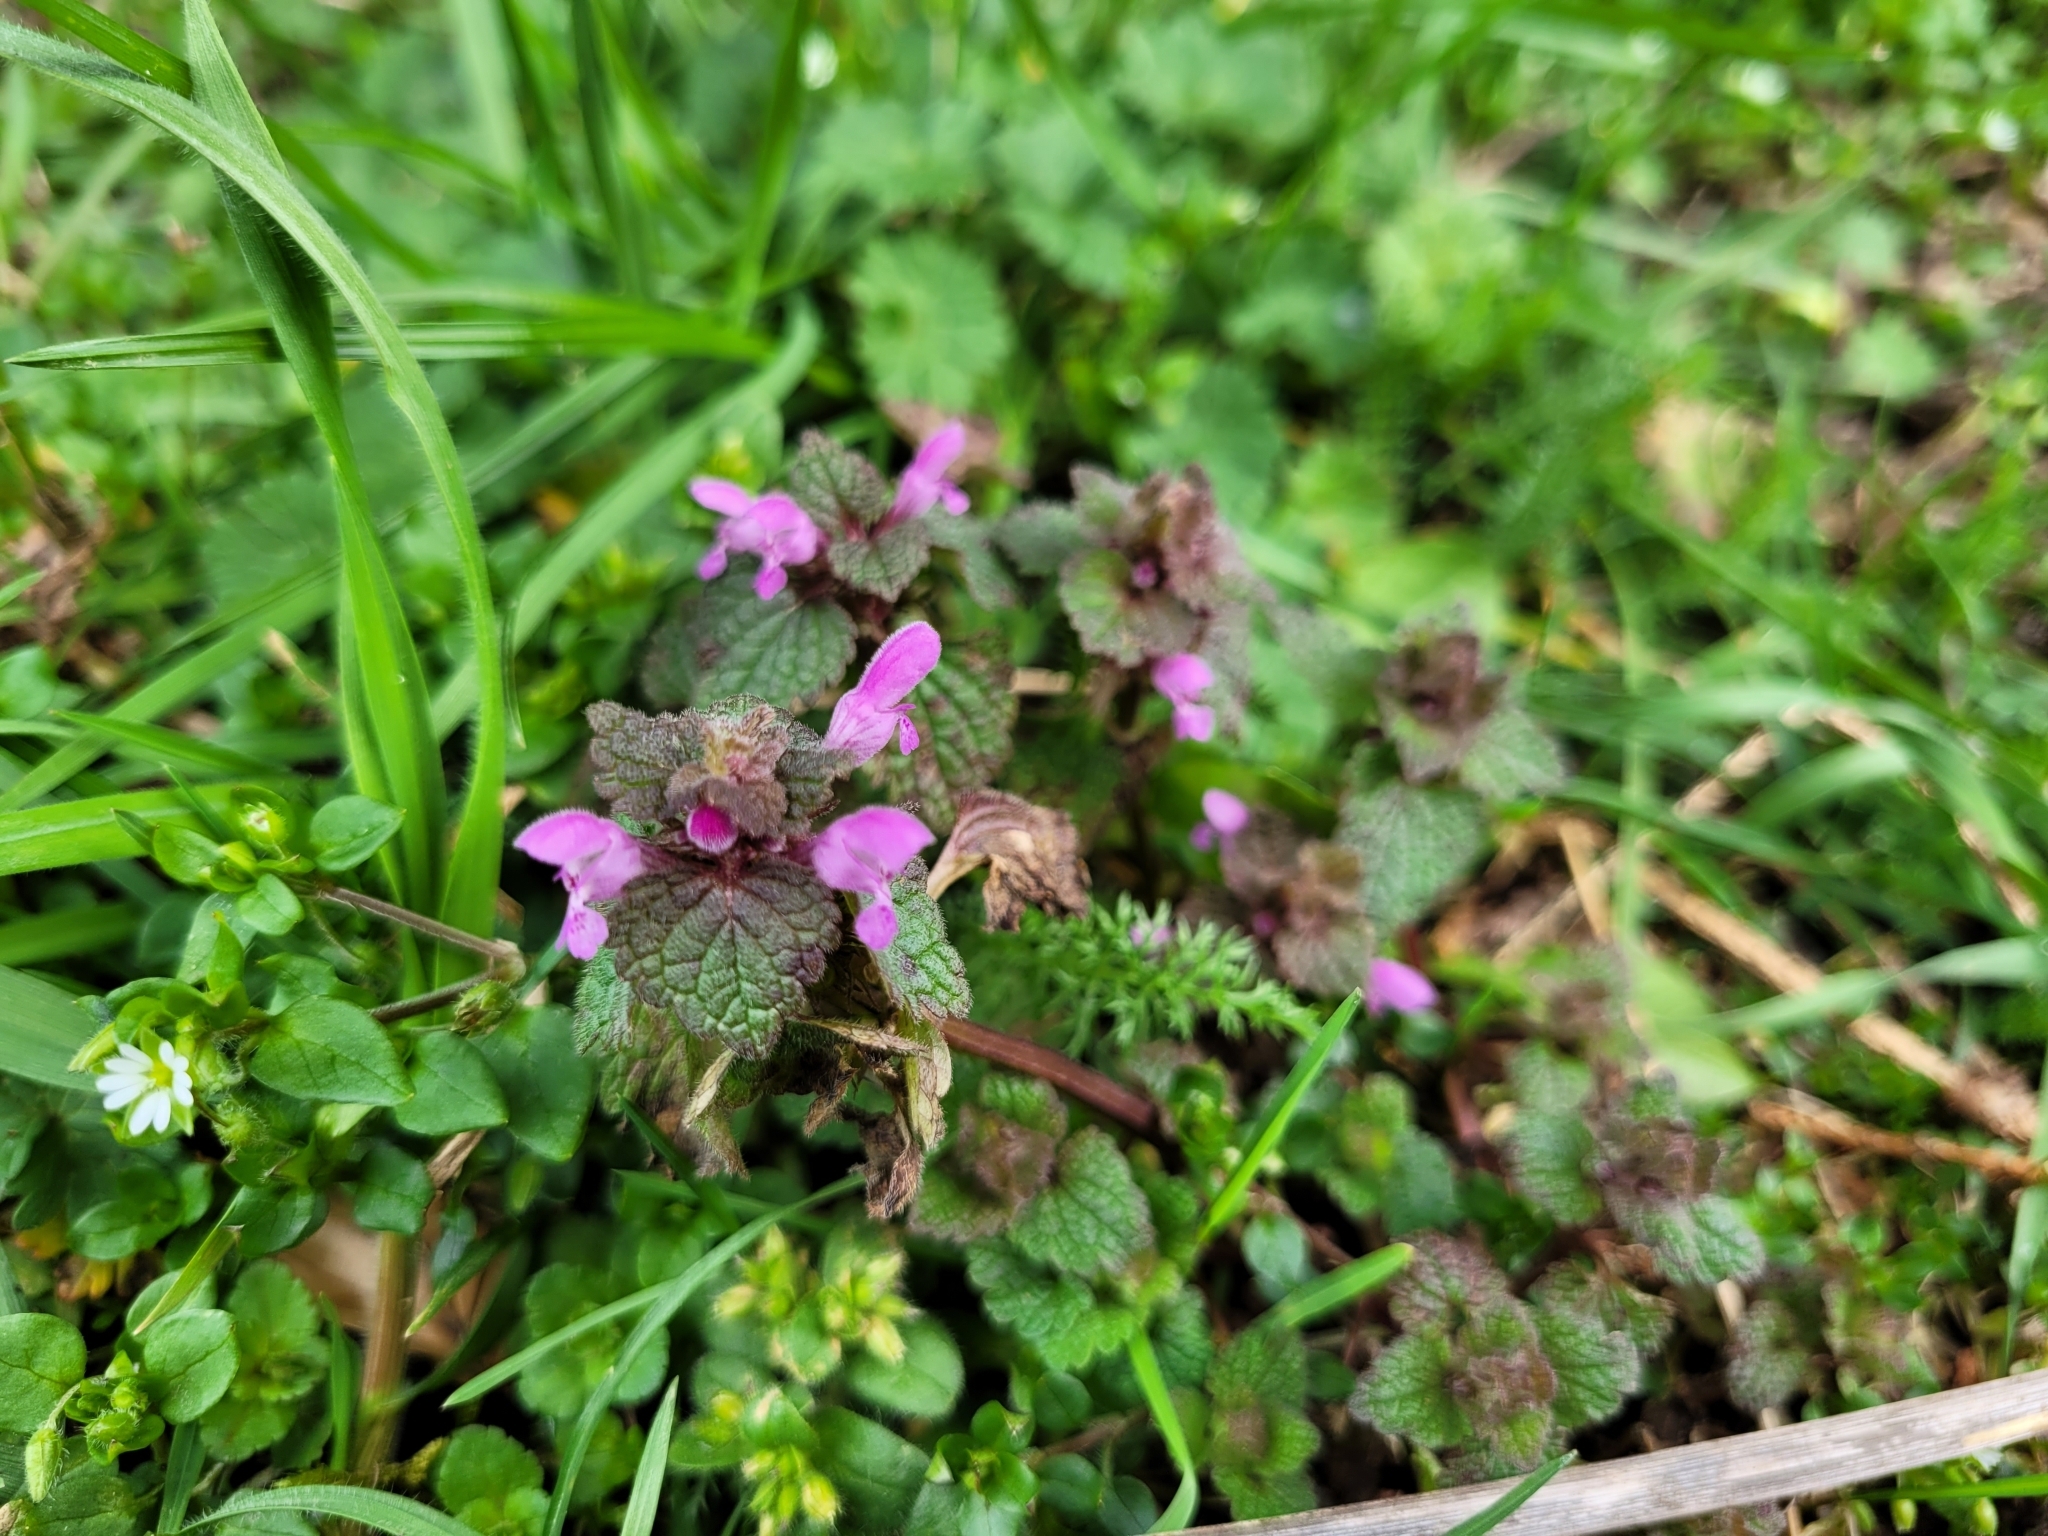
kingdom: Plantae
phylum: Tracheophyta
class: Magnoliopsida
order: Lamiales
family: Lamiaceae
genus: Lamium
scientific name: Lamium purpureum
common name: Red dead-nettle
